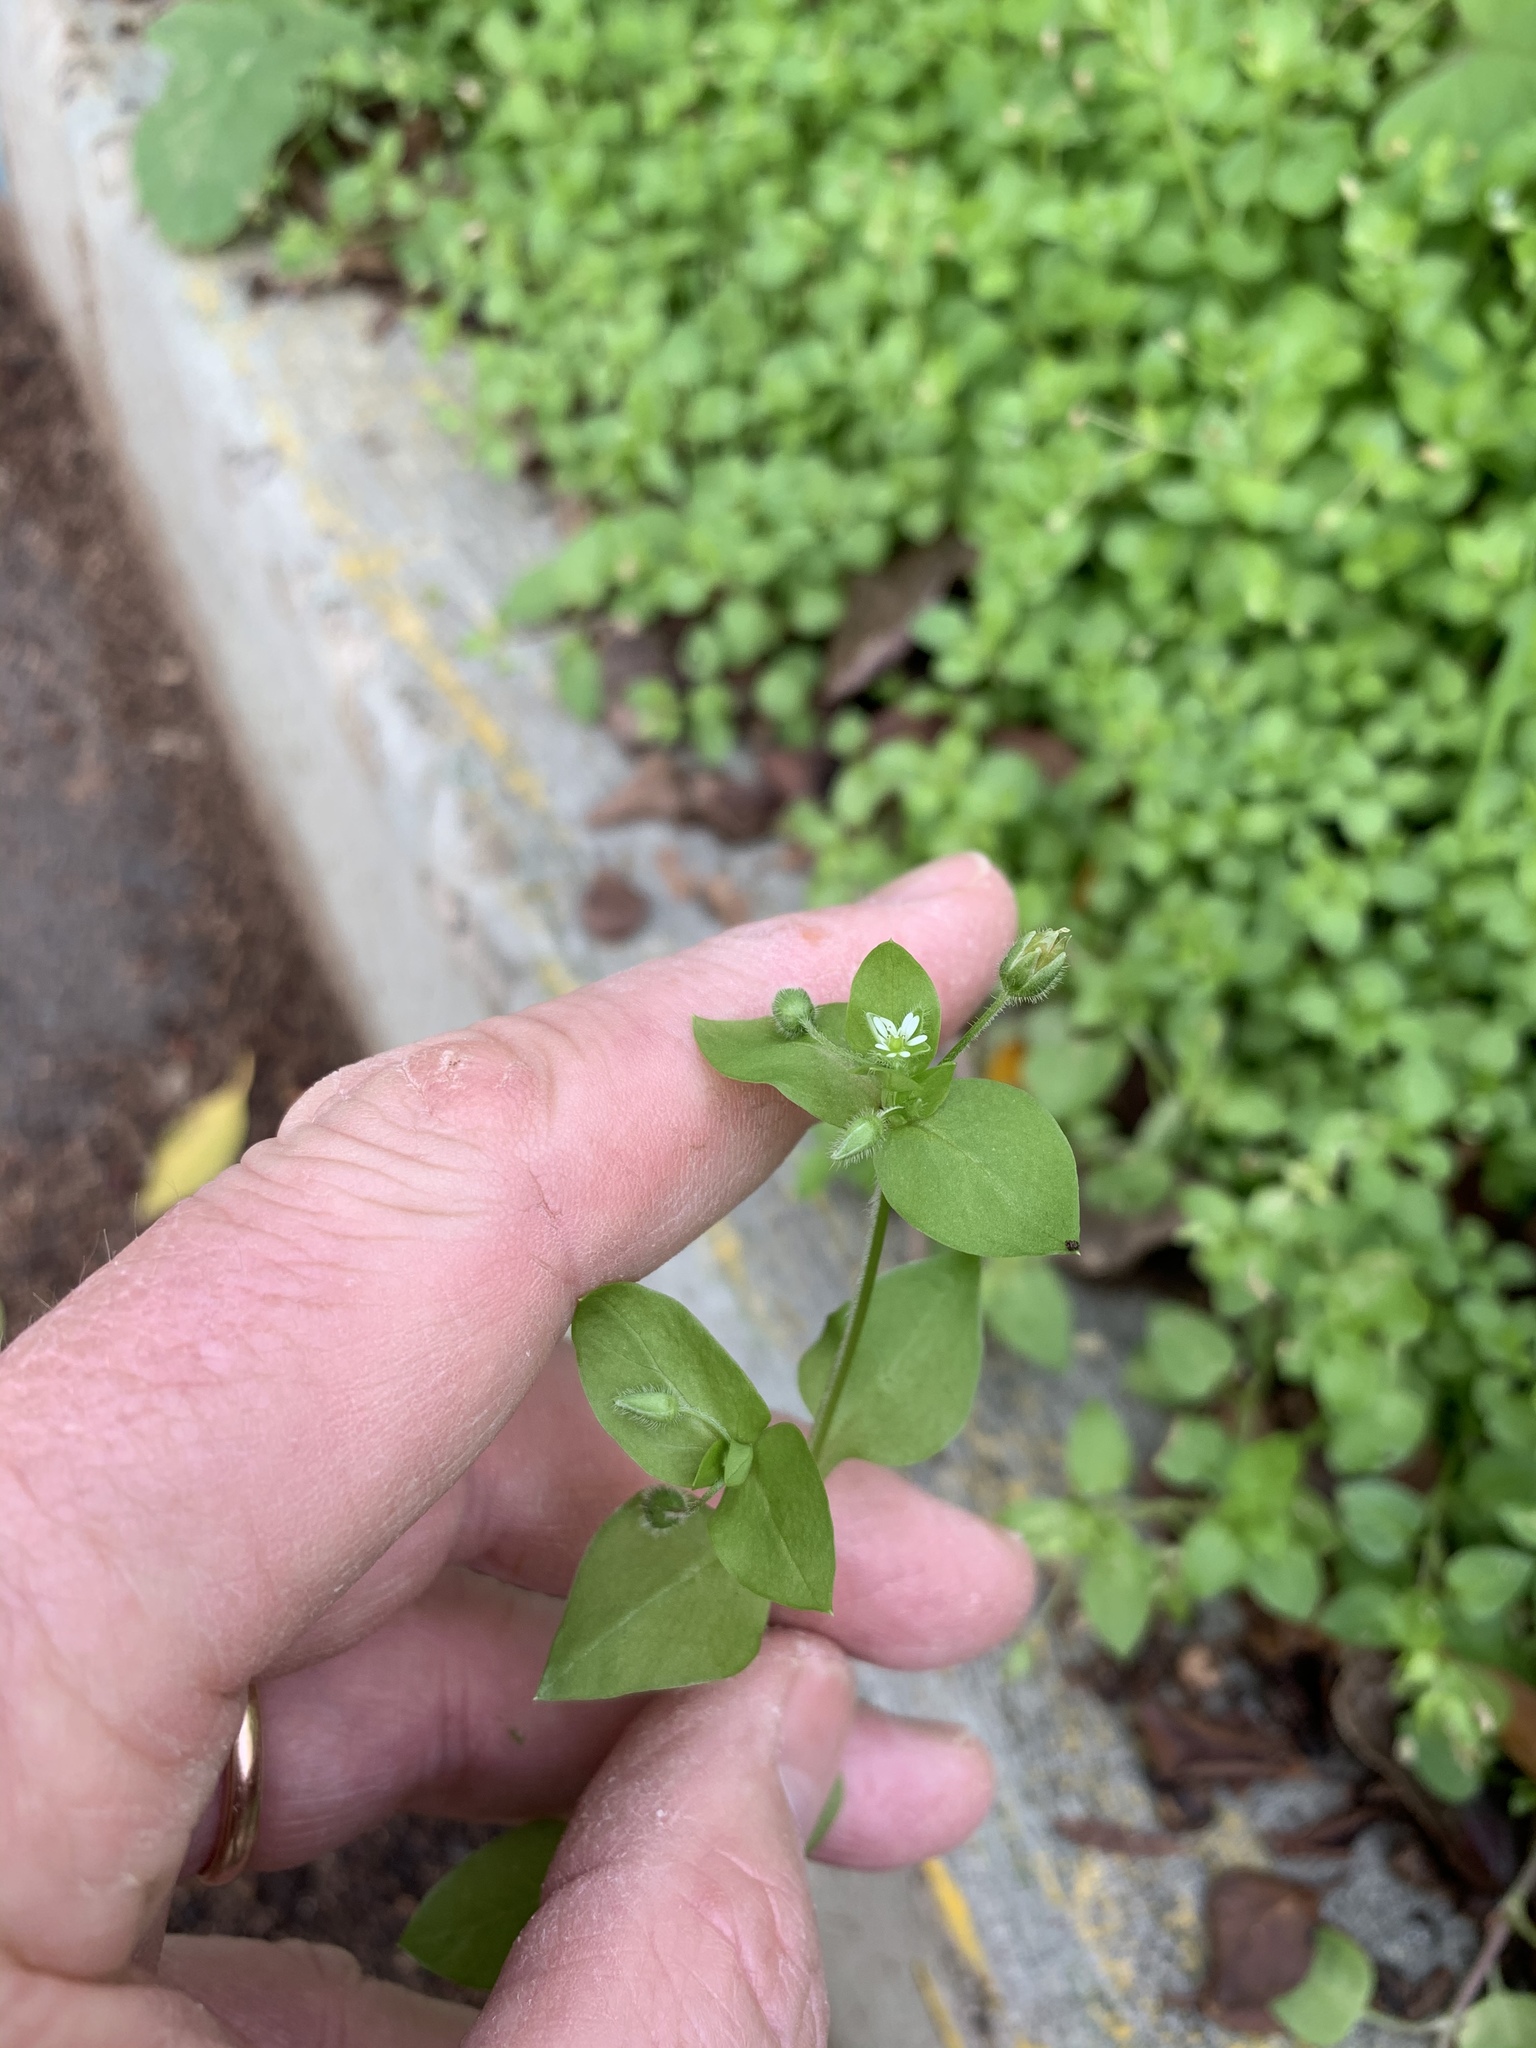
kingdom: Plantae
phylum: Tracheophyta
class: Magnoliopsida
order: Caryophyllales
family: Caryophyllaceae
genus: Stellaria
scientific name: Stellaria media
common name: Common chickweed
